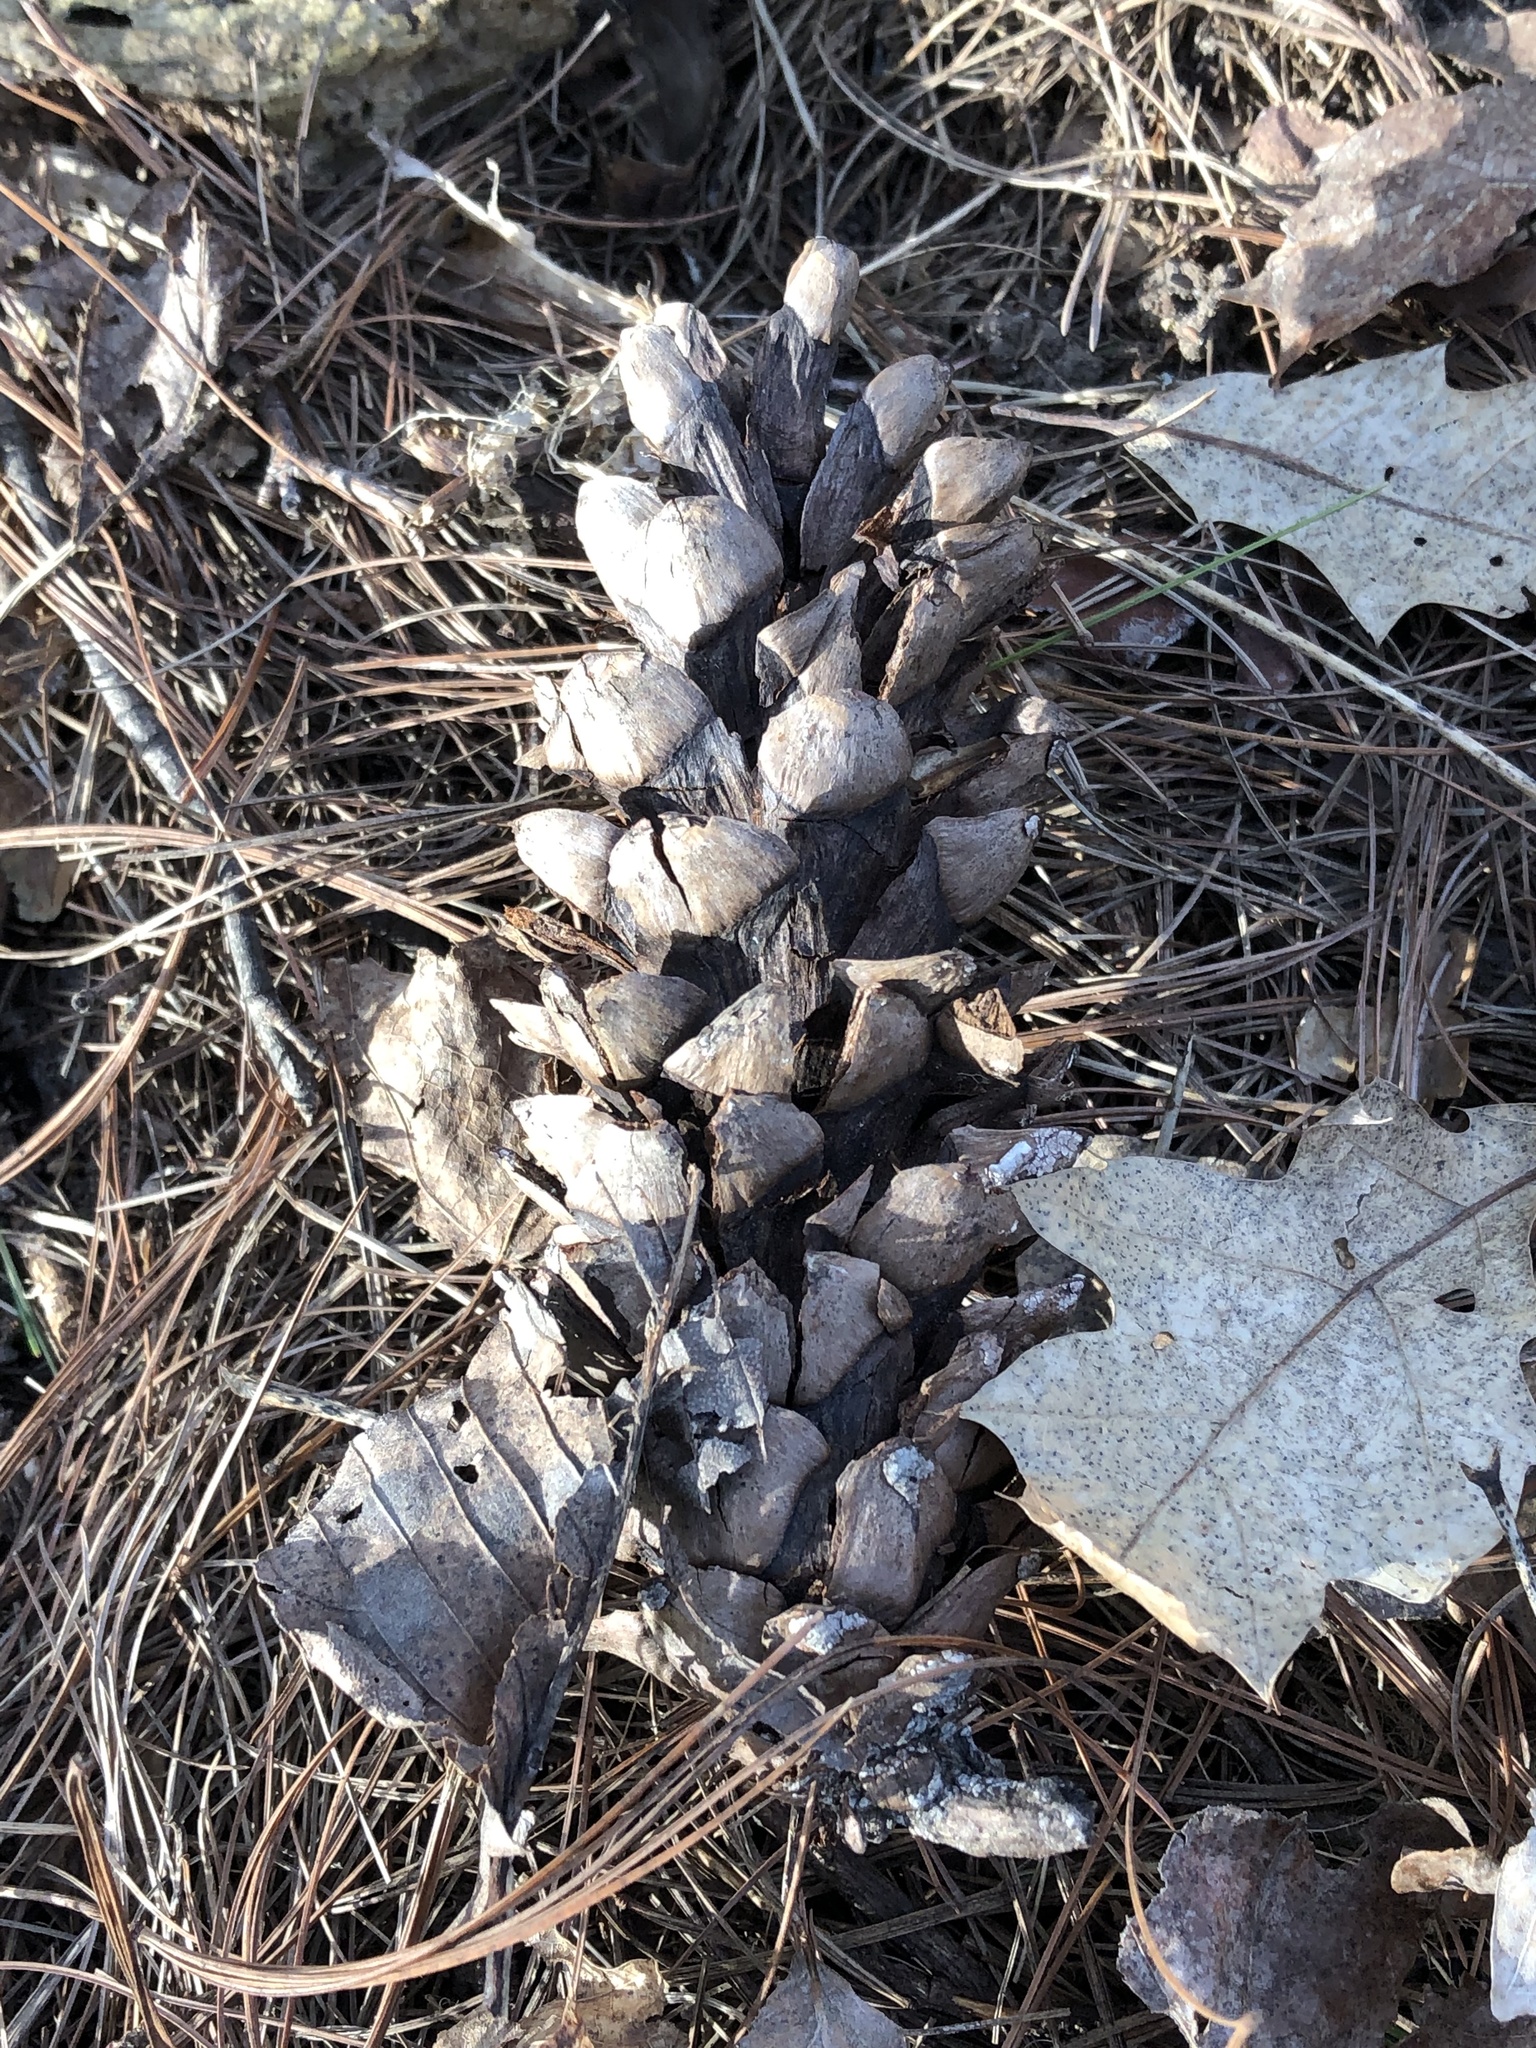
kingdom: Plantae
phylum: Tracheophyta
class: Pinopsida
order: Pinales
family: Pinaceae
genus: Pinus
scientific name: Pinus strobus
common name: Weymouth pine
